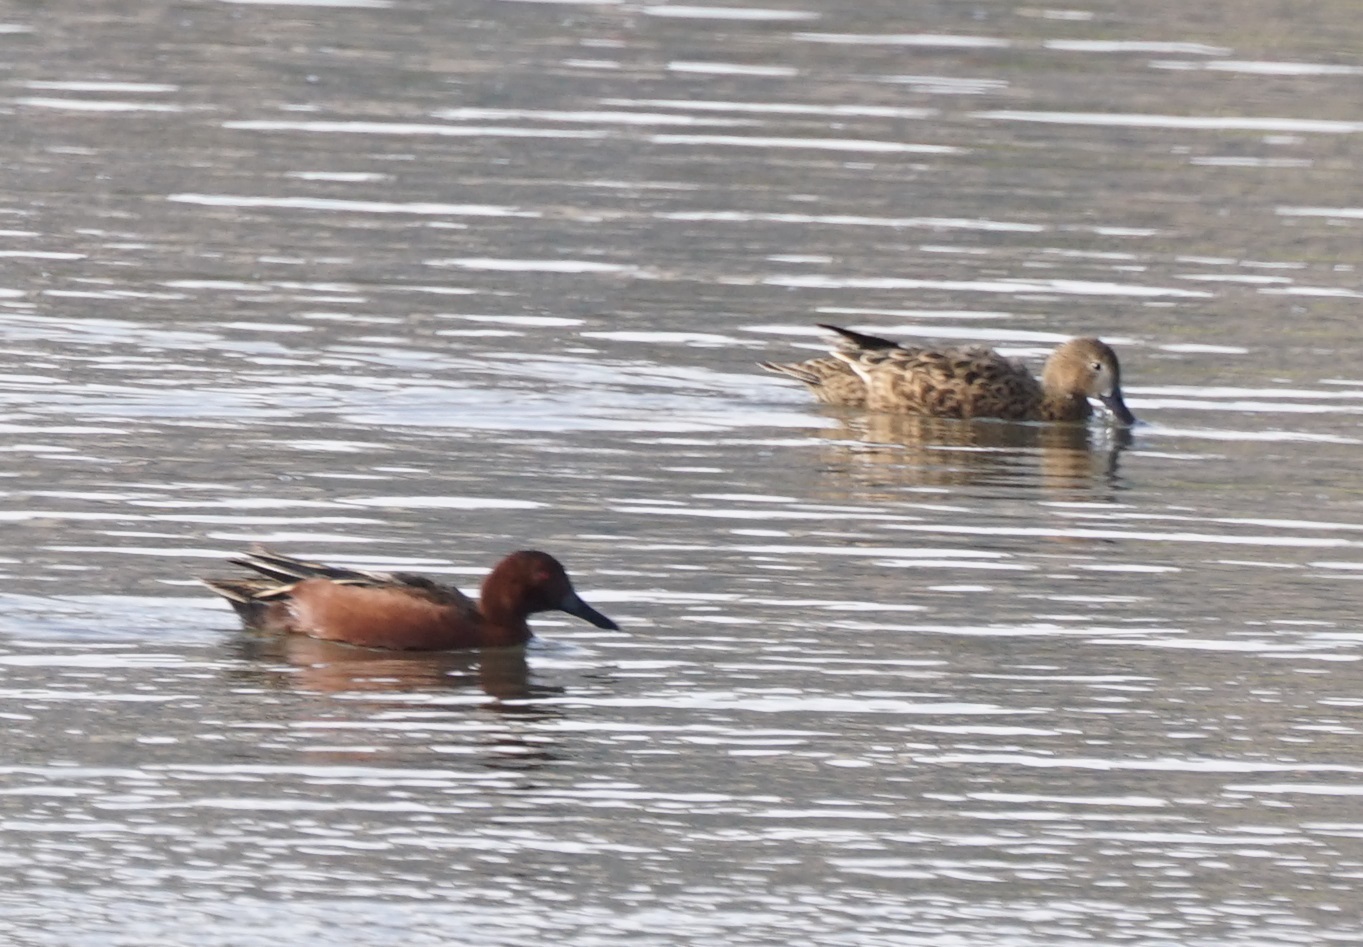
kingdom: Animalia
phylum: Chordata
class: Aves
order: Anseriformes
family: Anatidae
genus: Spatula
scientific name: Spatula cyanoptera
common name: Cinnamon teal
